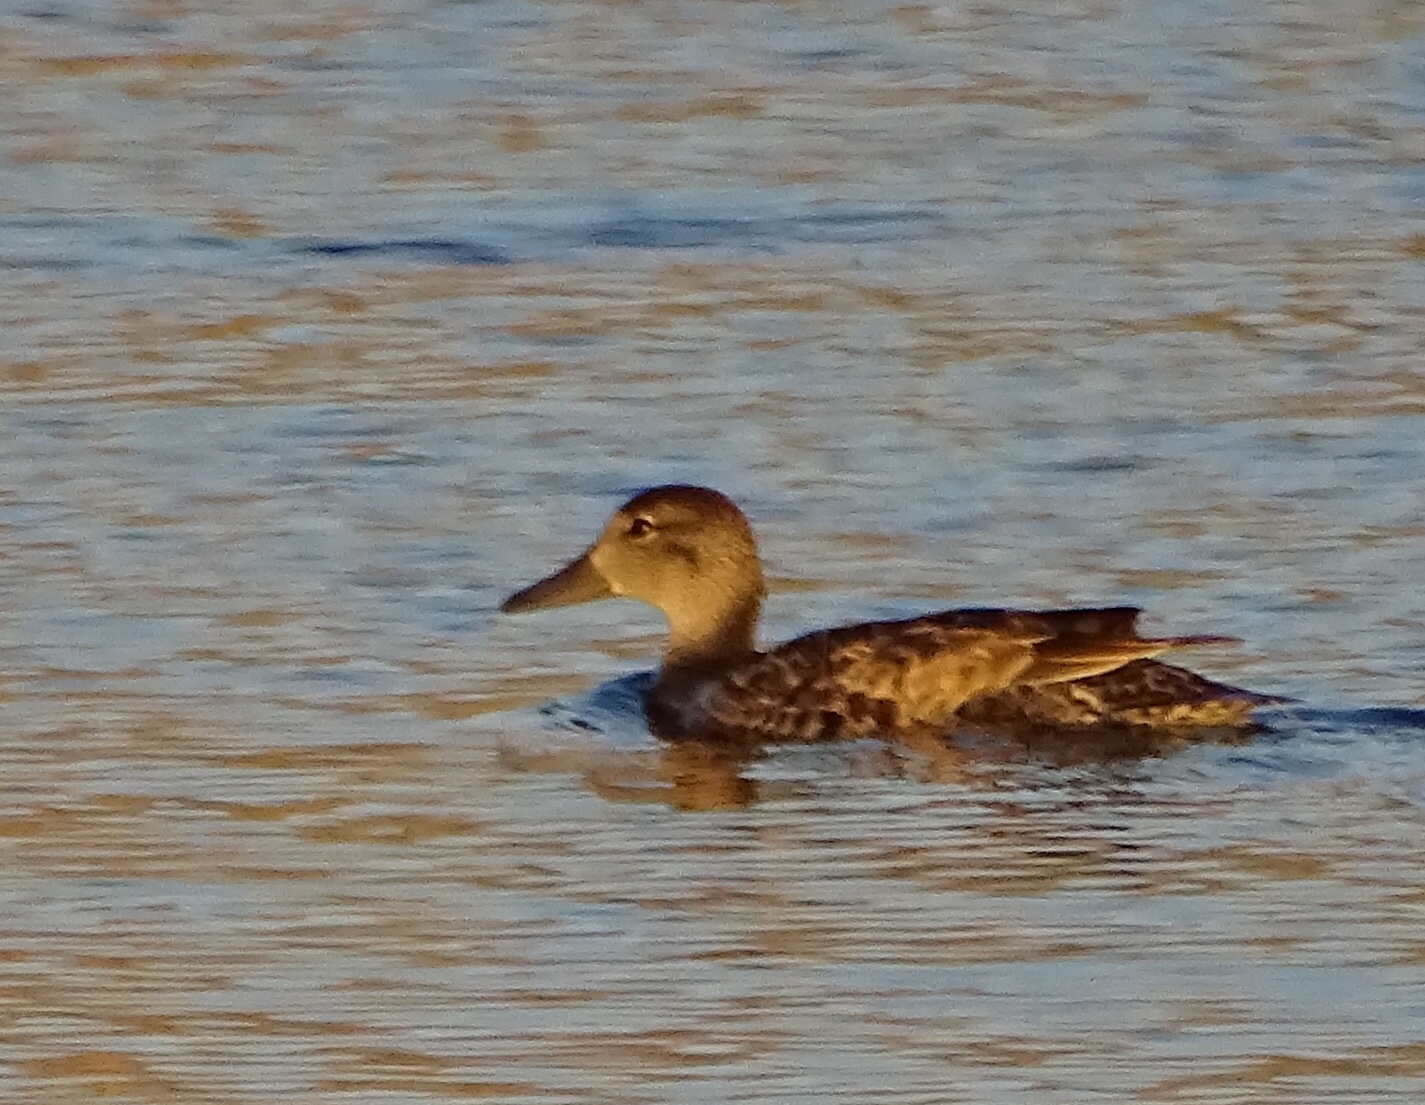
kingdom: Animalia
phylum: Chordata
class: Aves
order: Anseriformes
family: Anatidae
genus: Spatula
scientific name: Spatula cyanoptera
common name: Cinnamon teal
